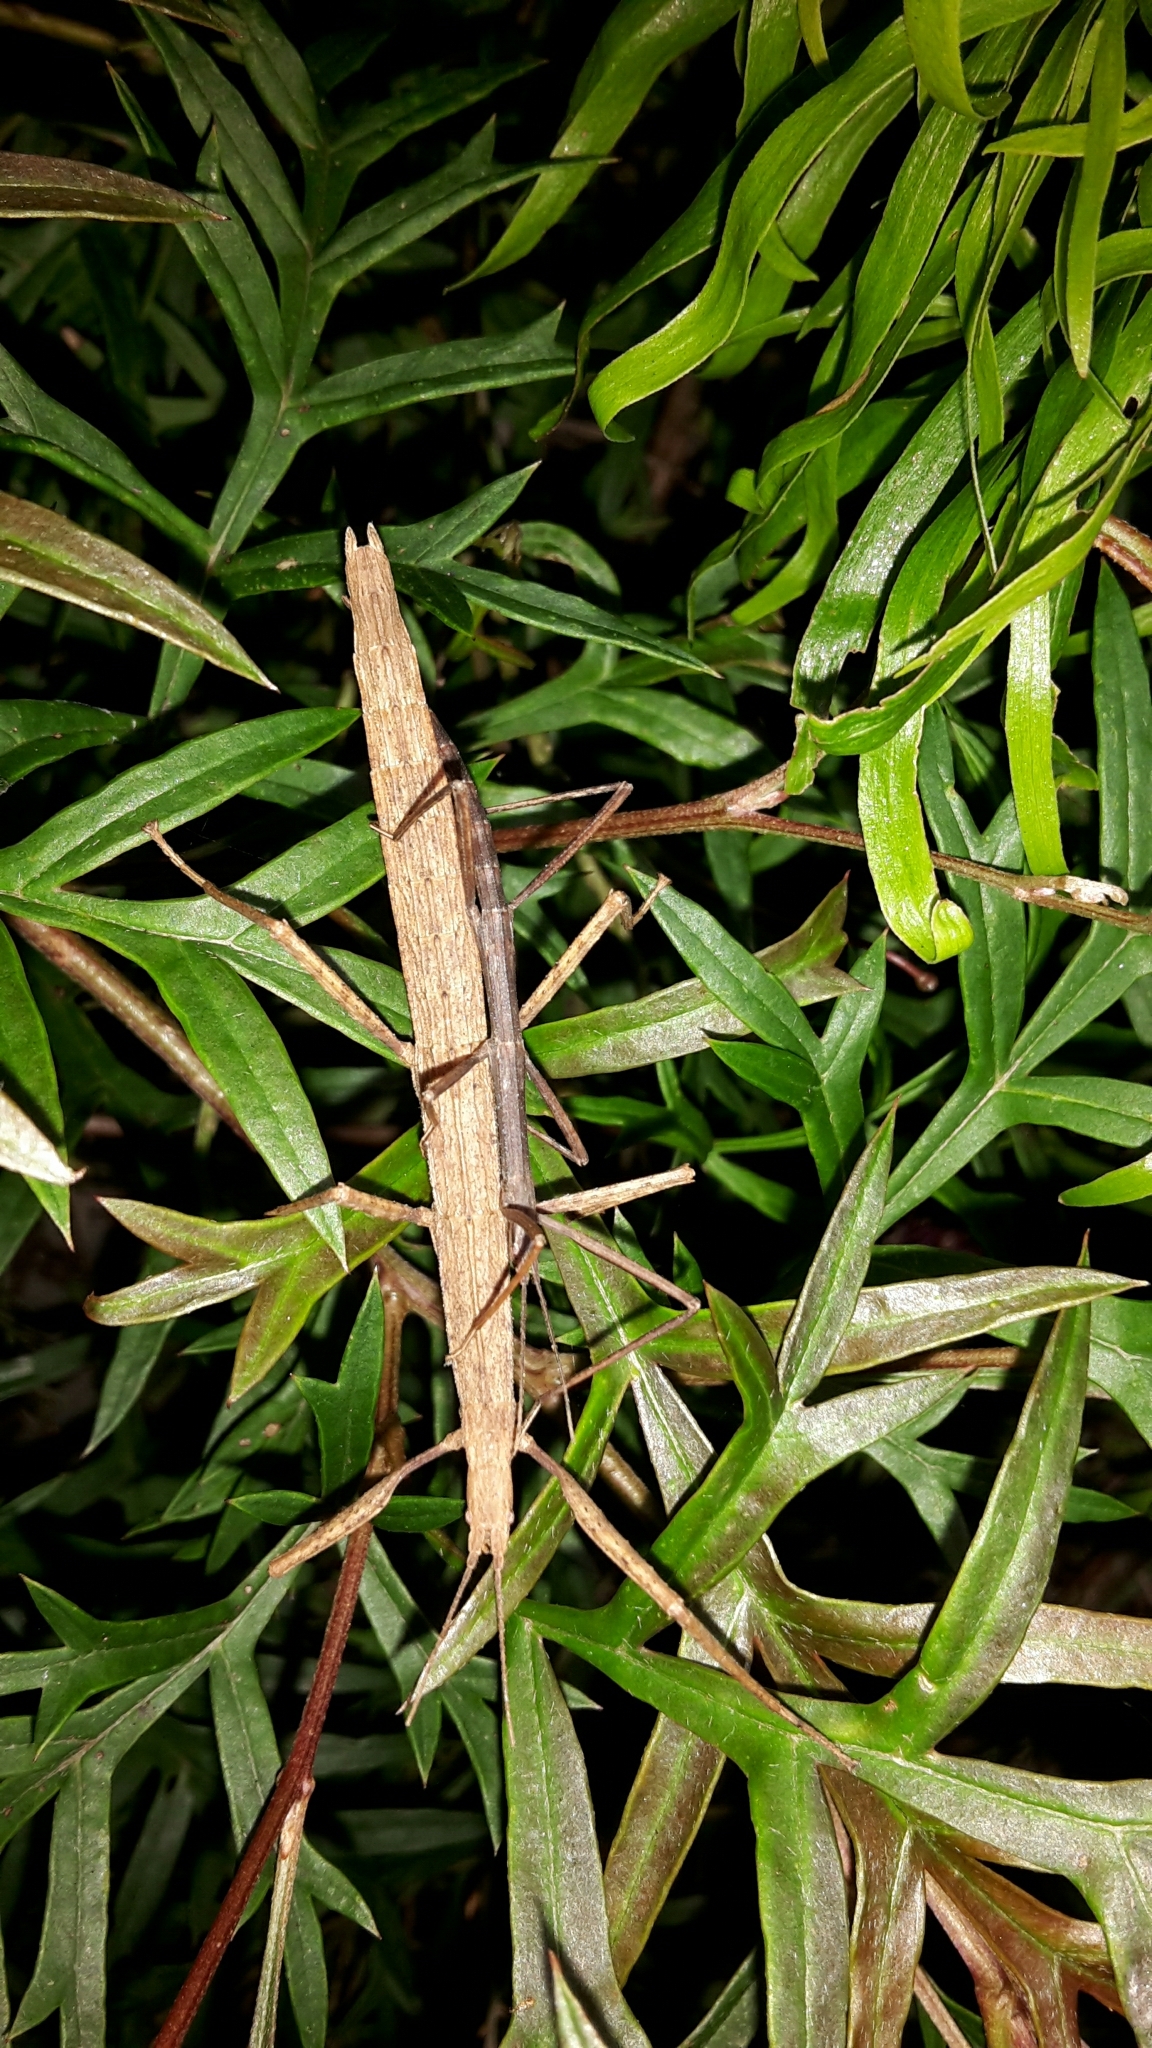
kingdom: Animalia
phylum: Arthropoda
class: Insecta
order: Phasmida
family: Phasmatidae
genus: Tectarchus
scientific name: Tectarchus huttoni
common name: The common ridge-backed stick insect
